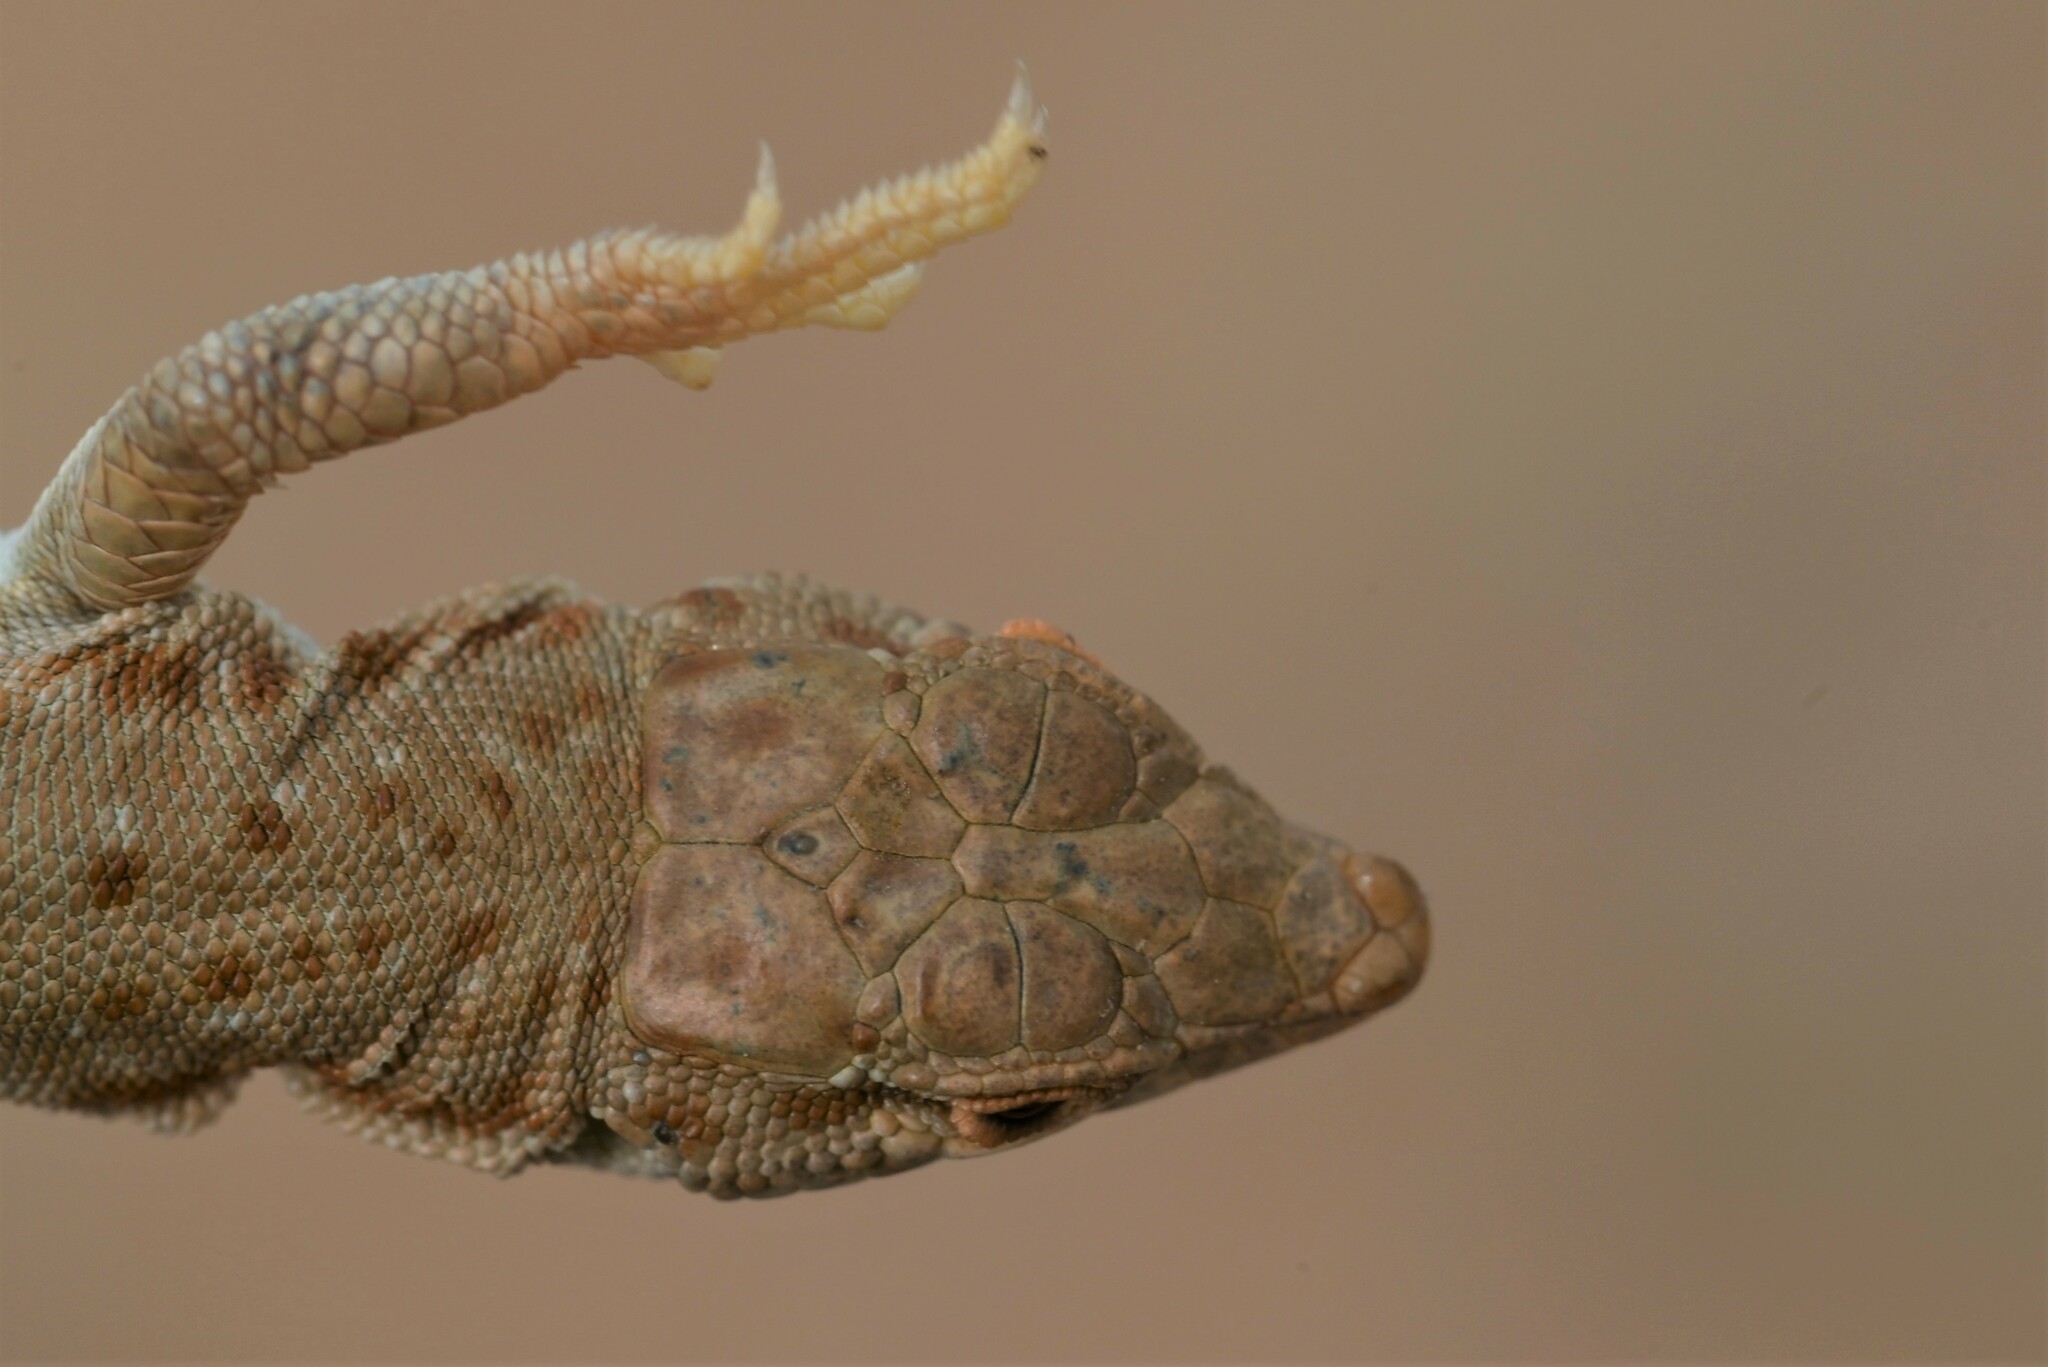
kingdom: Animalia
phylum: Chordata
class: Squamata
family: Lacertidae
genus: Mesalina
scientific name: Mesalina brevirostris
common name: Blanford's short-nosed desert lizard
